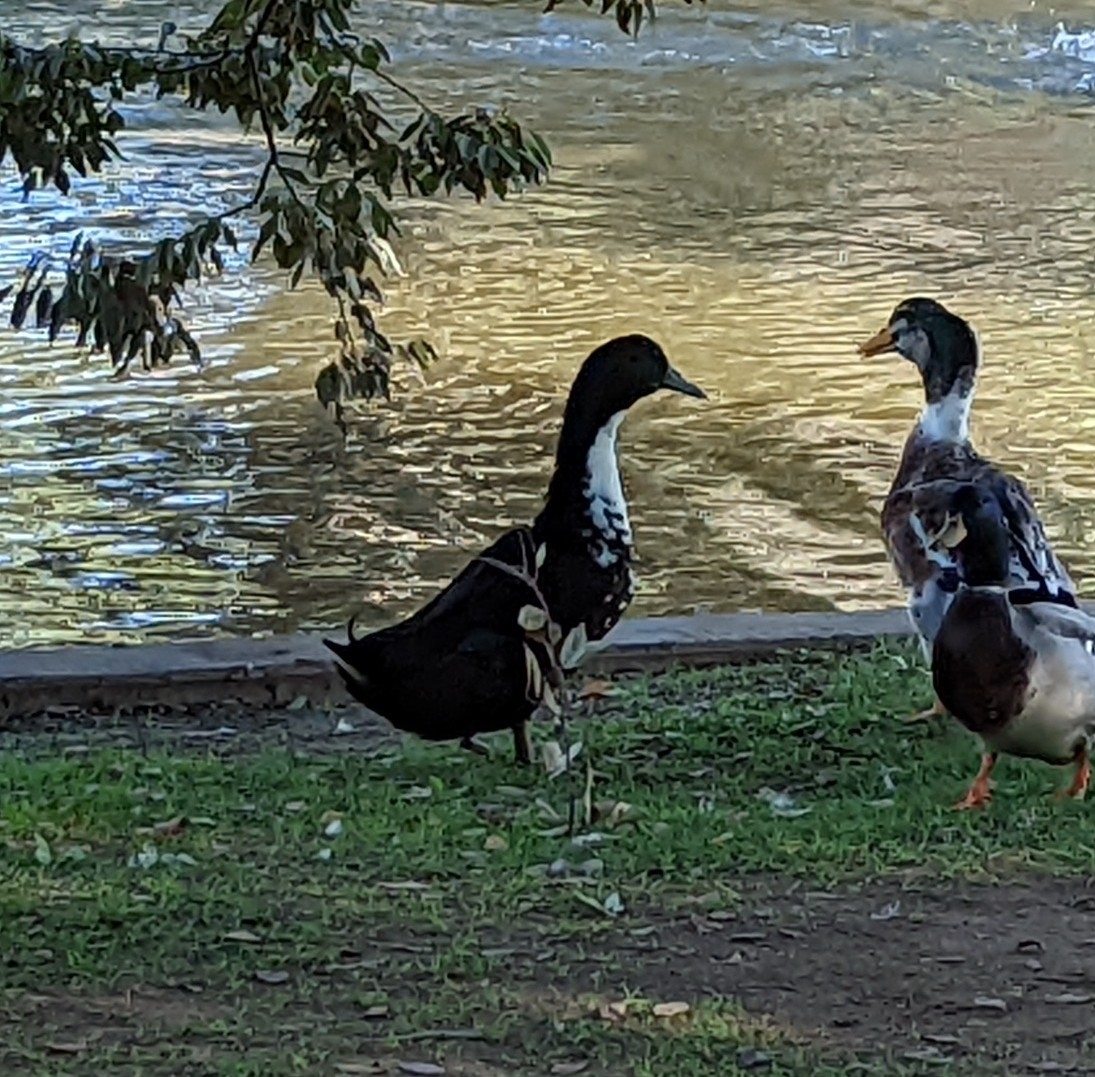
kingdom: Animalia
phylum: Chordata
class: Aves
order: Anseriformes
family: Anatidae
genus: Anas
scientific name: Anas platyrhynchos
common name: Mallard
